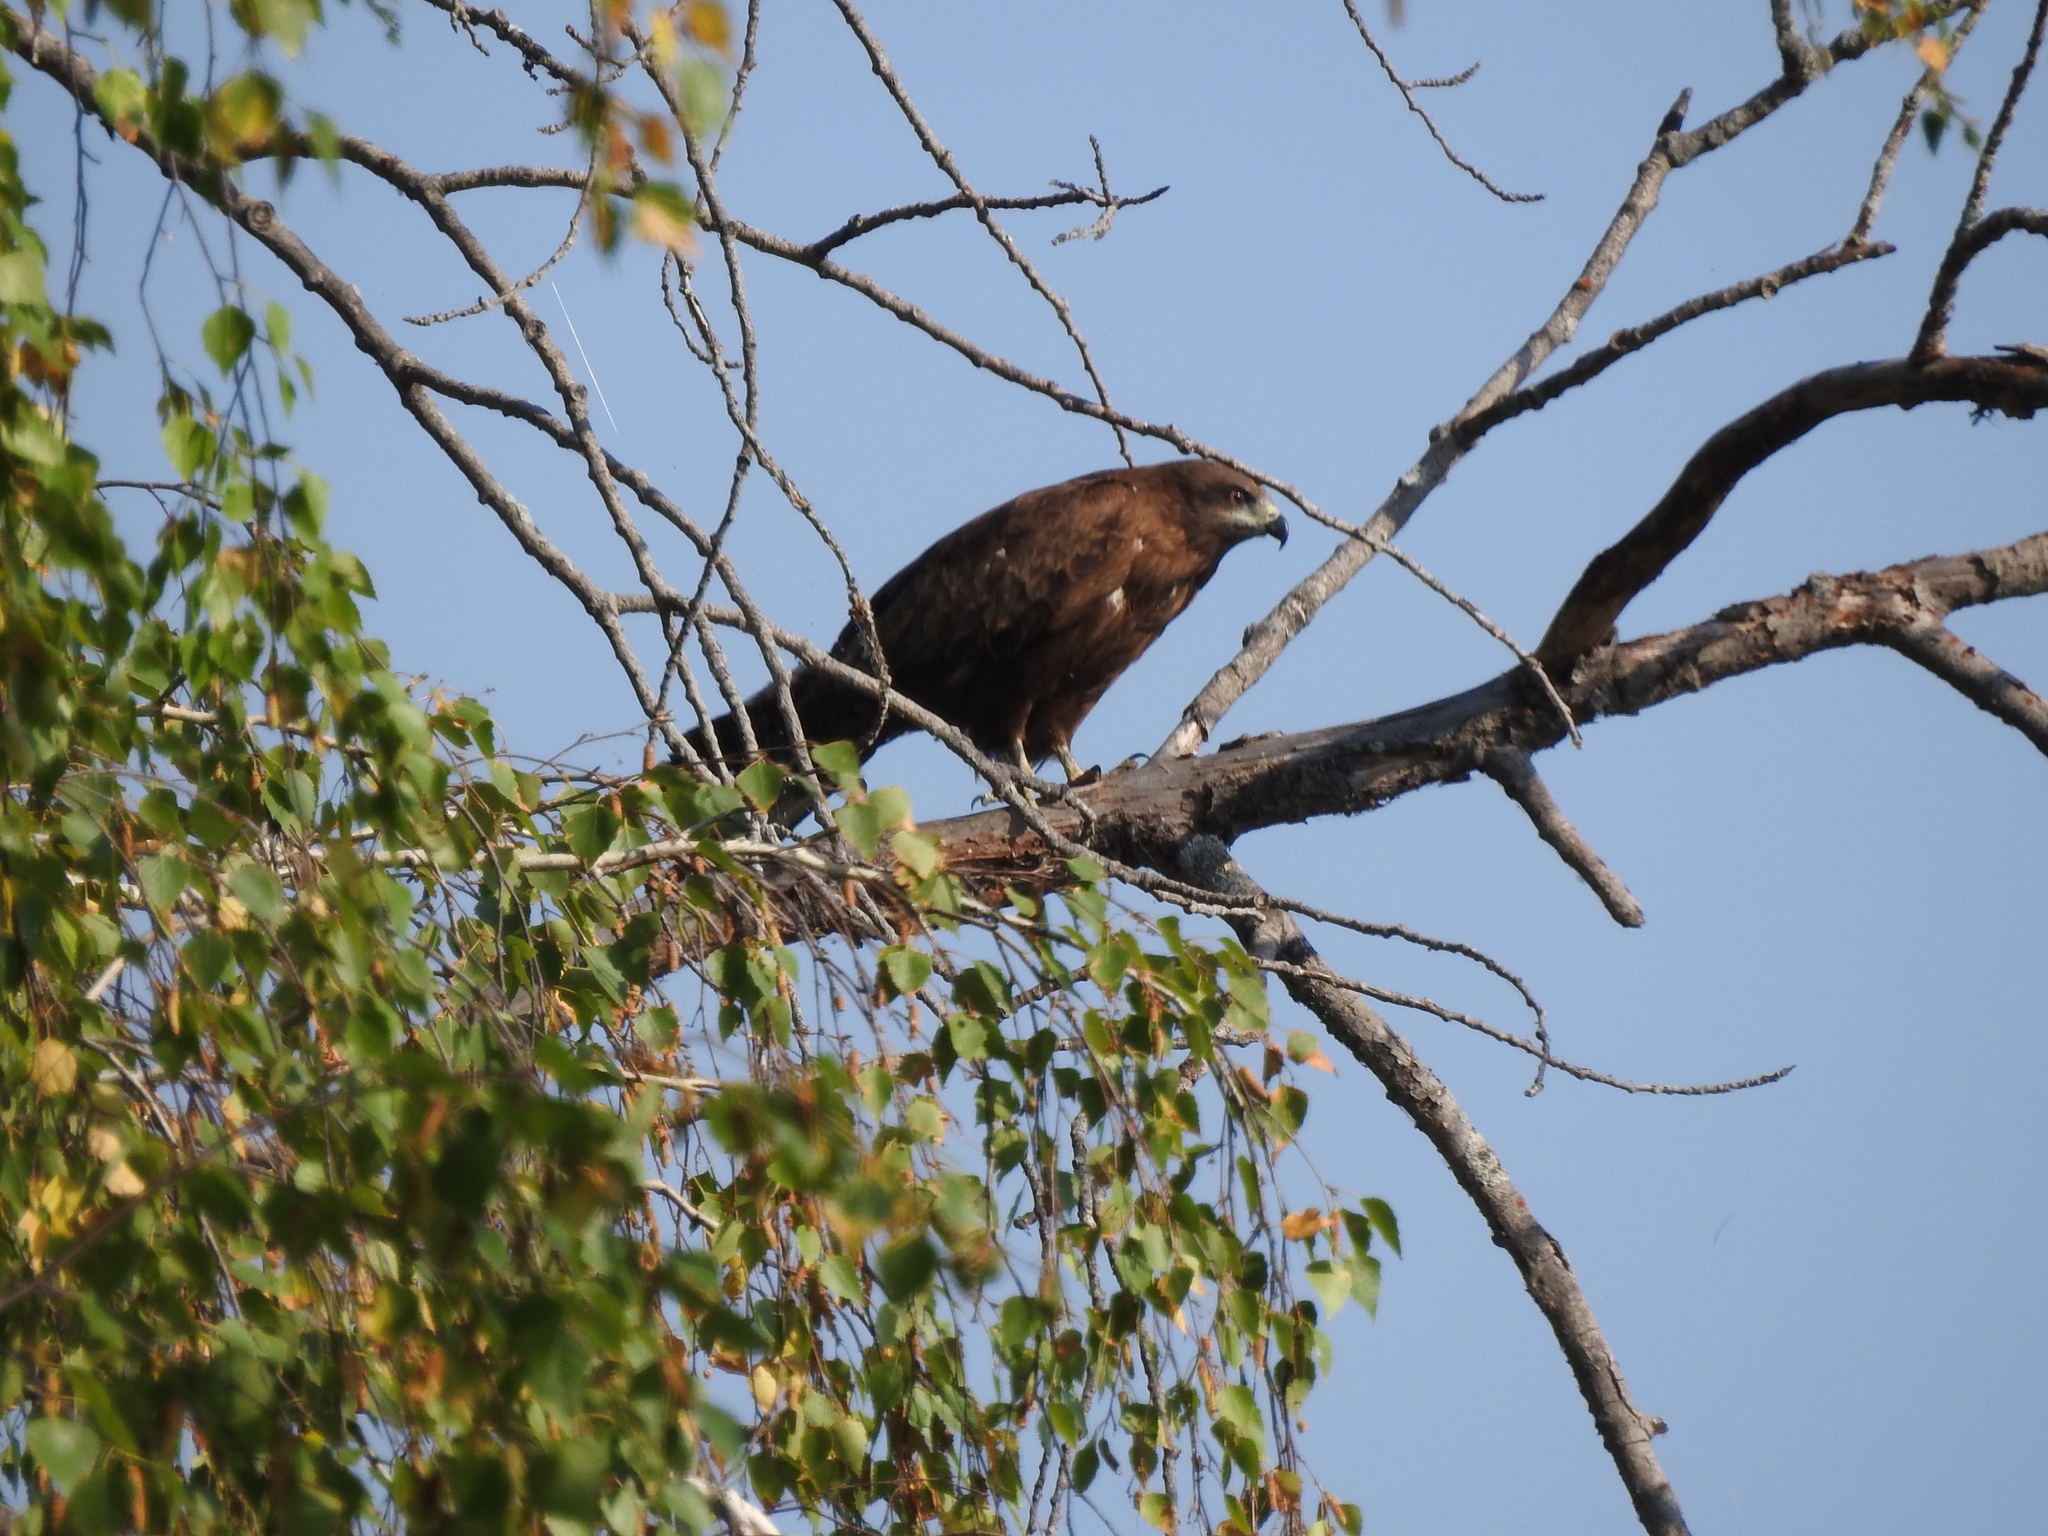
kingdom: Animalia
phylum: Chordata
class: Aves
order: Accipitriformes
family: Accipitridae
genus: Milvus
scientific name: Milvus migrans
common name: Black kite
